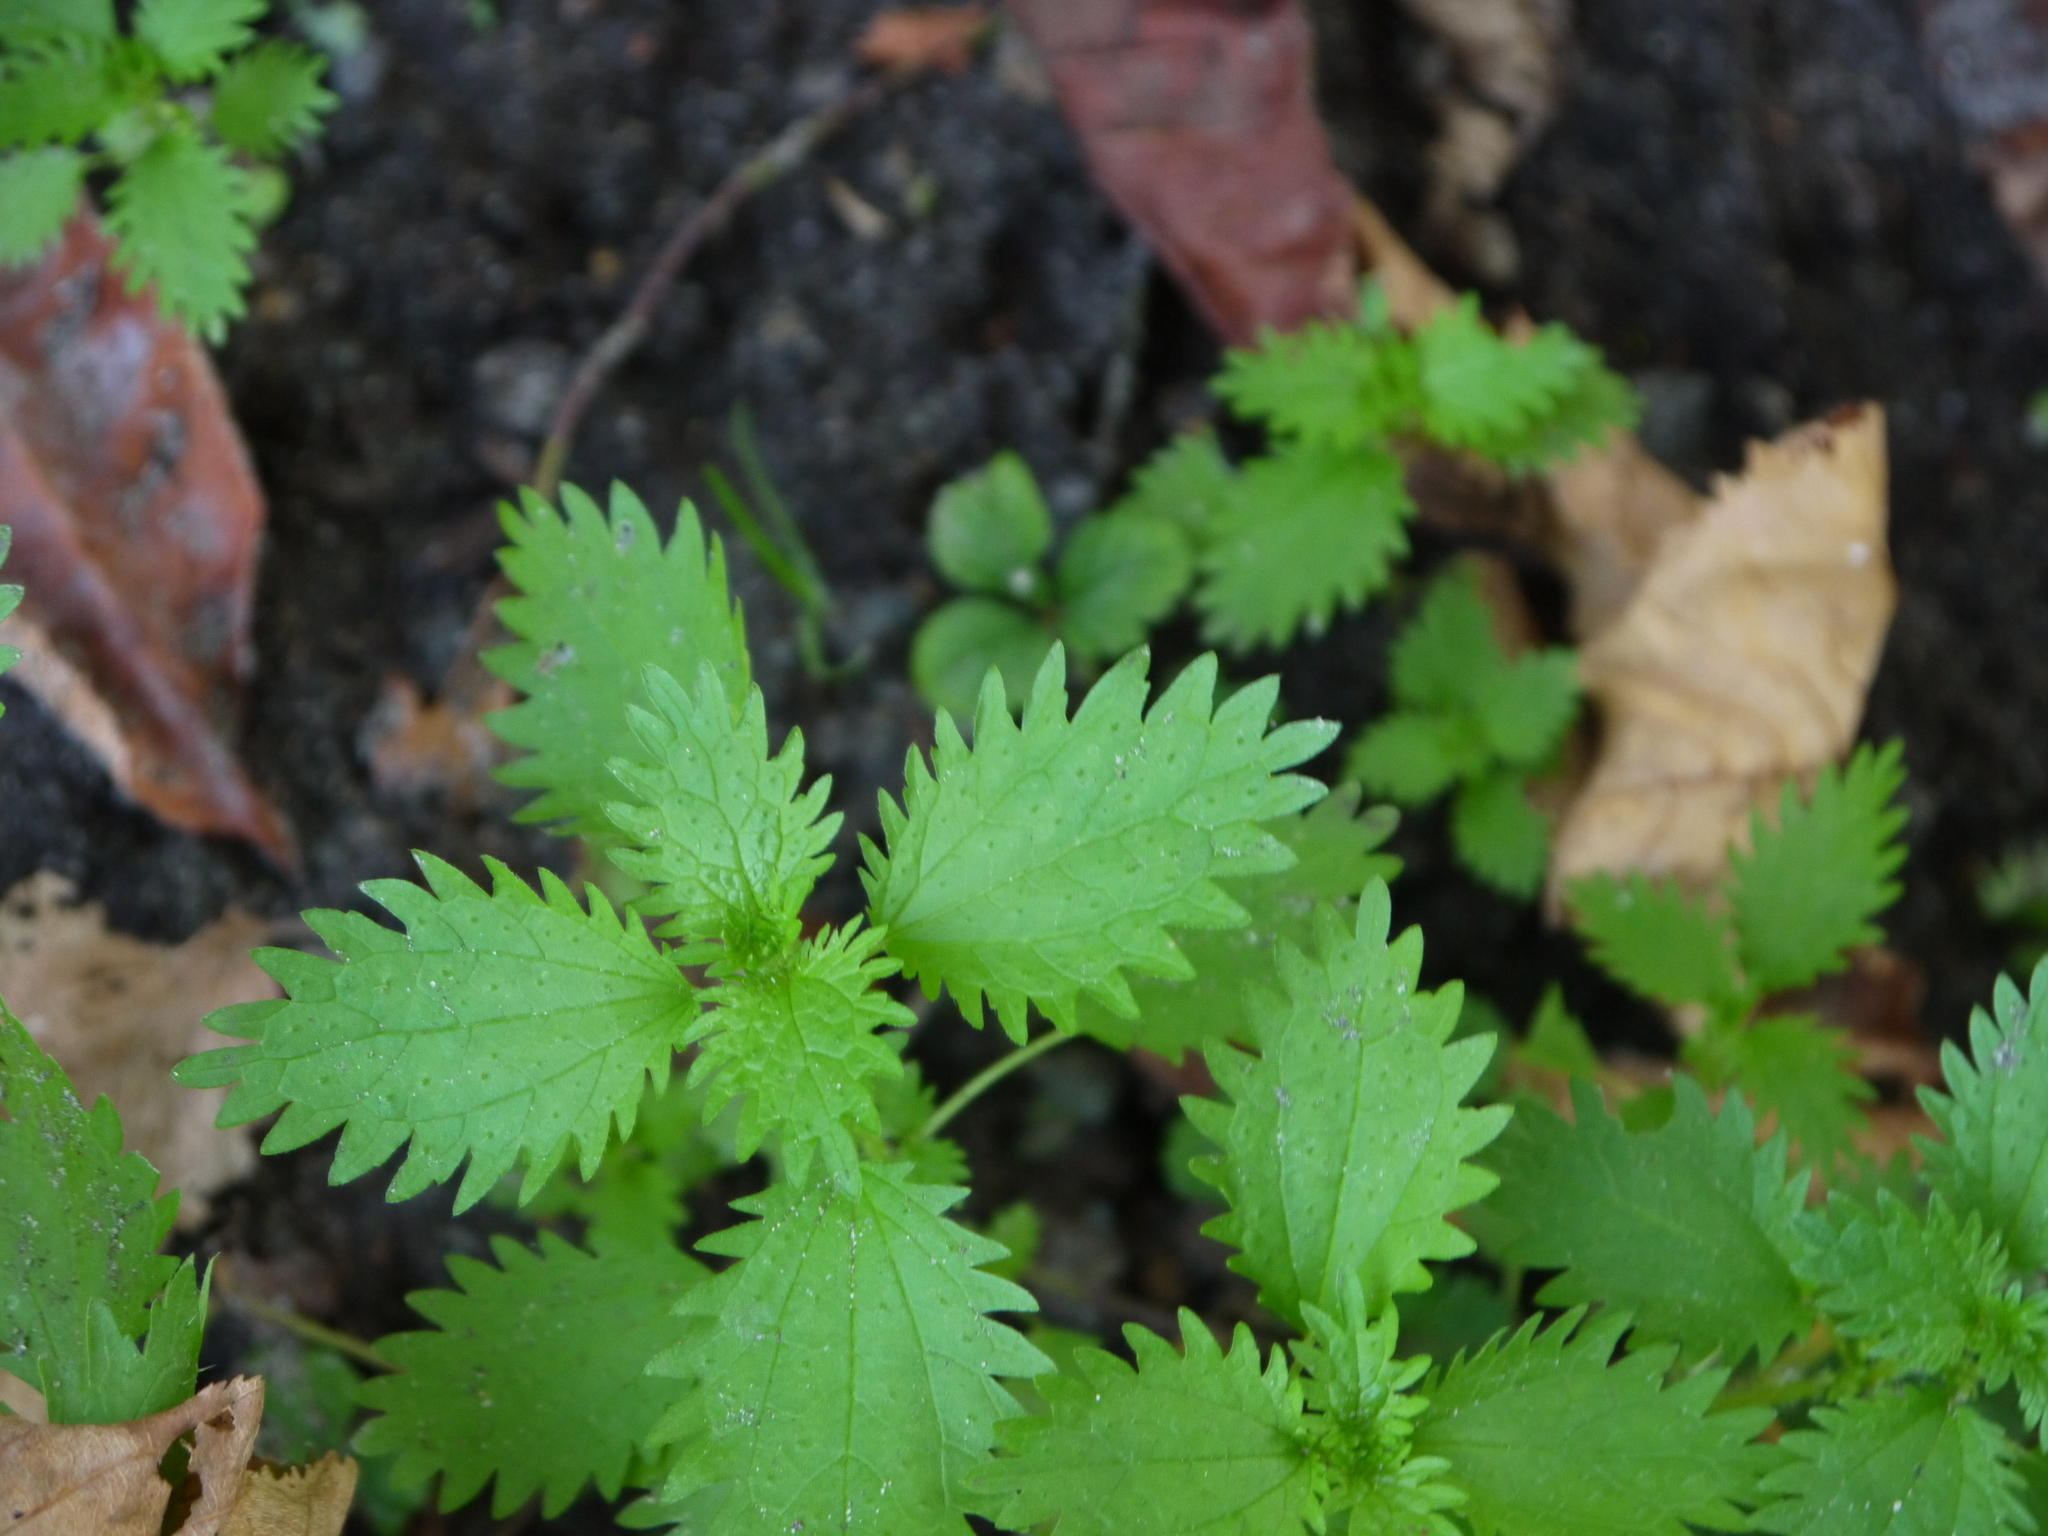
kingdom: Plantae
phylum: Tracheophyta
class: Magnoliopsida
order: Rosales
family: Urticaceae
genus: Urtica
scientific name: Urtica urens
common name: Dwarf nettle
